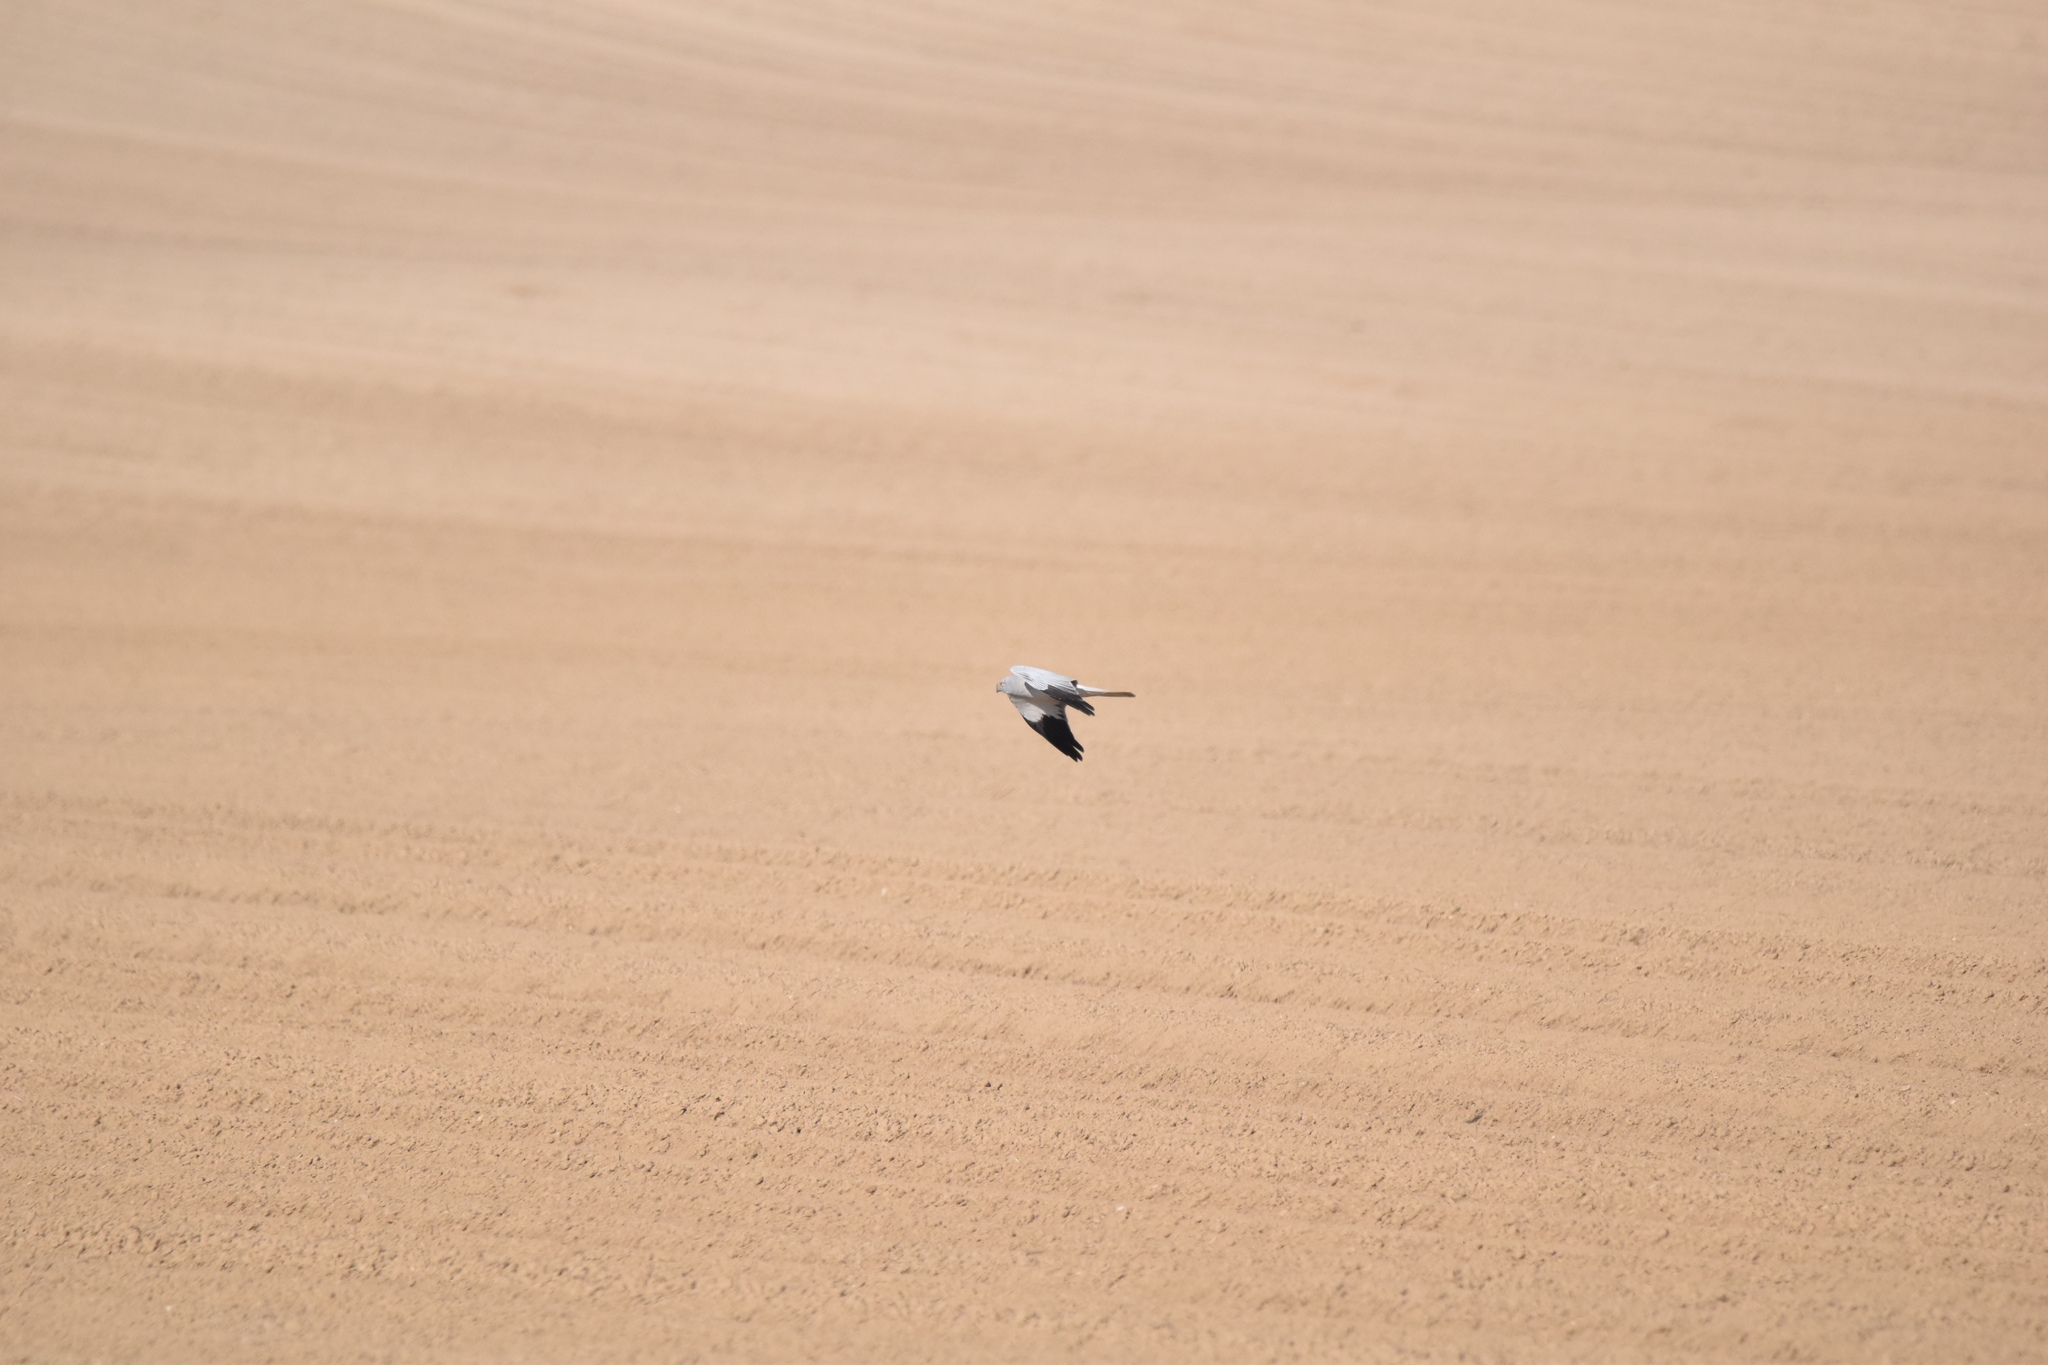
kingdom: Animalia
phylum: Chordata
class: Aves
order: Accipitriformes
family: Accipitridae
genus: Circus
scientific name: Circus cyaneus
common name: Hen harrier
